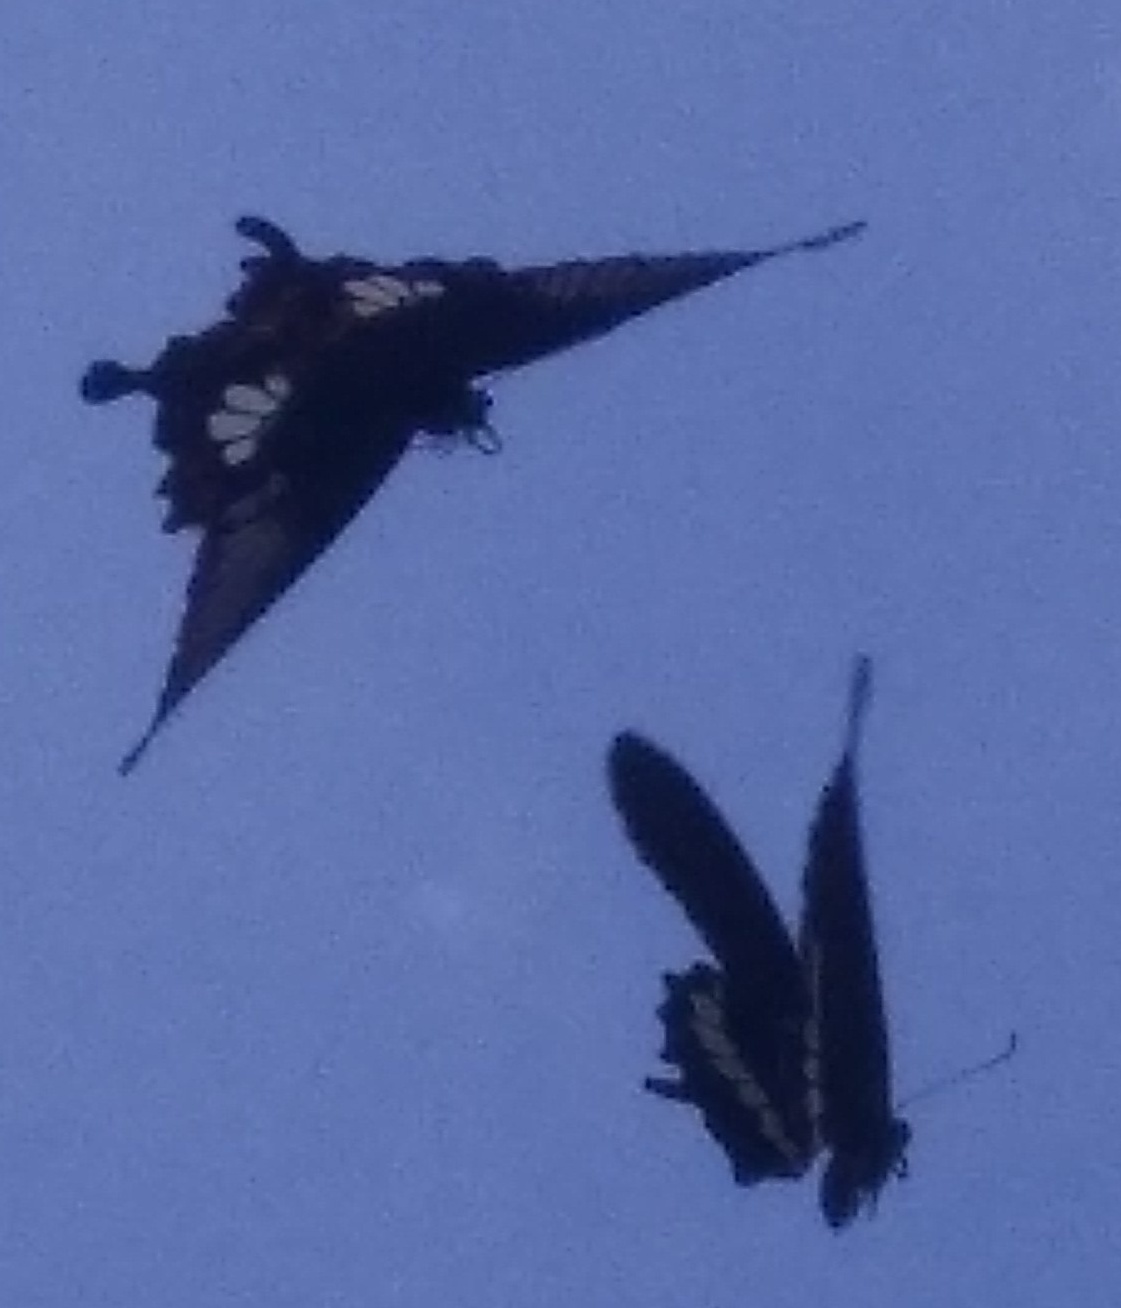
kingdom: Animalia
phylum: Arthropoda
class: Insecta
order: Lepidoptera
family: Papilionidae
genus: Papilio
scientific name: Papilio polytes
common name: Common mormon
